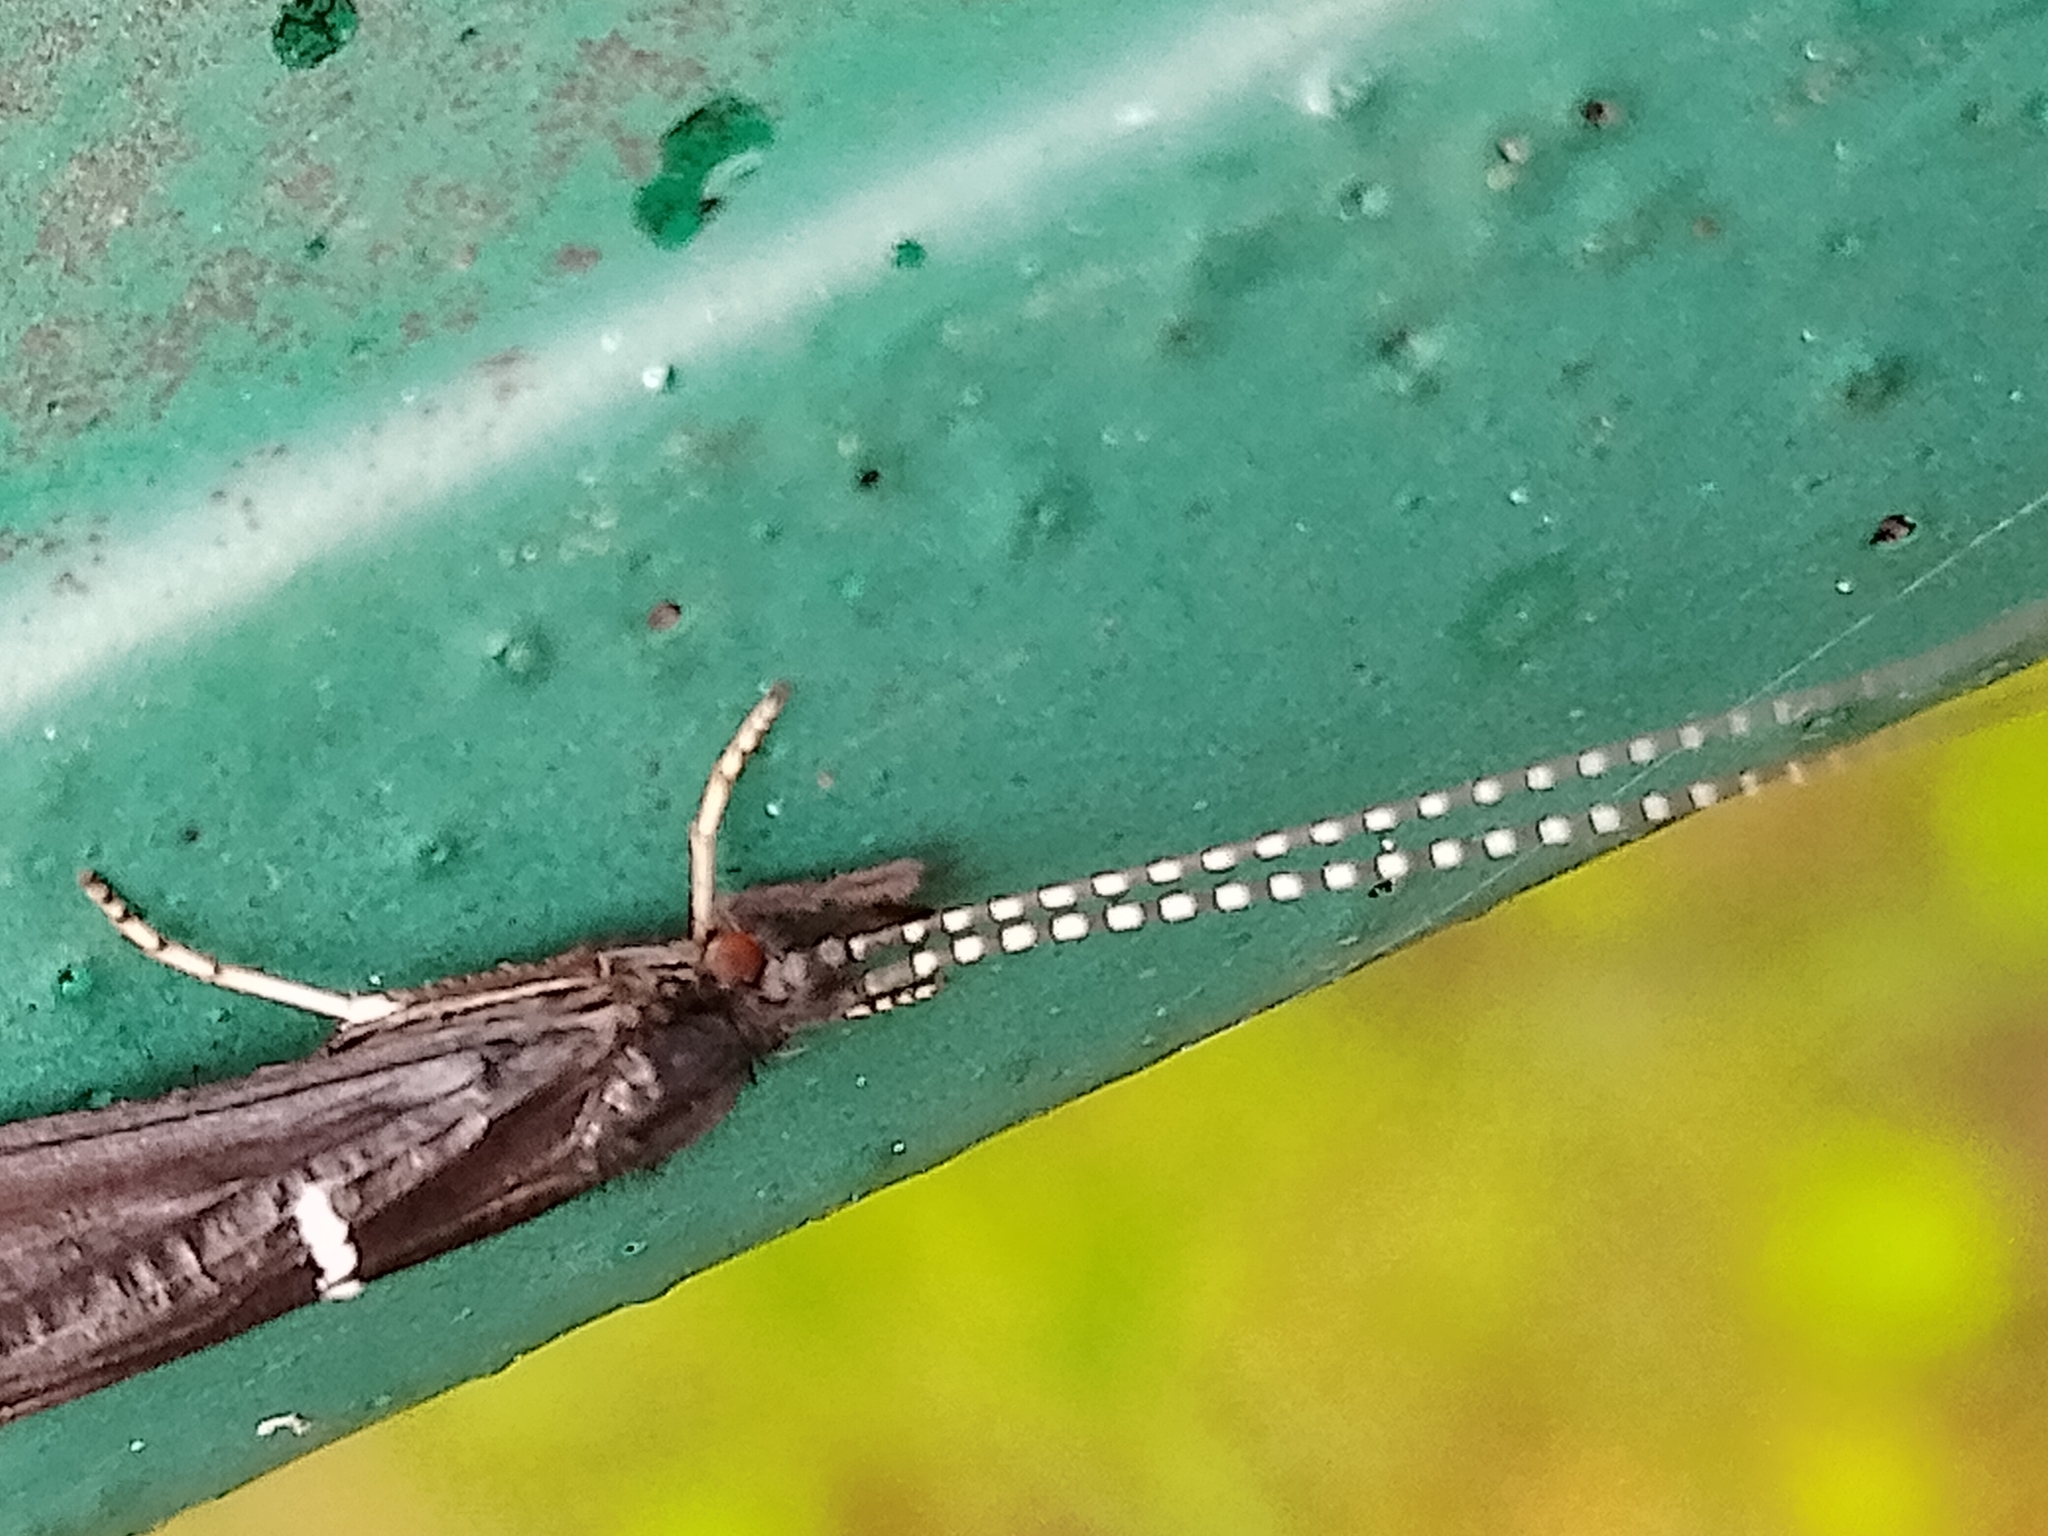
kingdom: Animalia
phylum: Arthropoda
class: Insecta
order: Trichoptera
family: Leptoceridae
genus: Athripsodes
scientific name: Athripsodes albifrons
